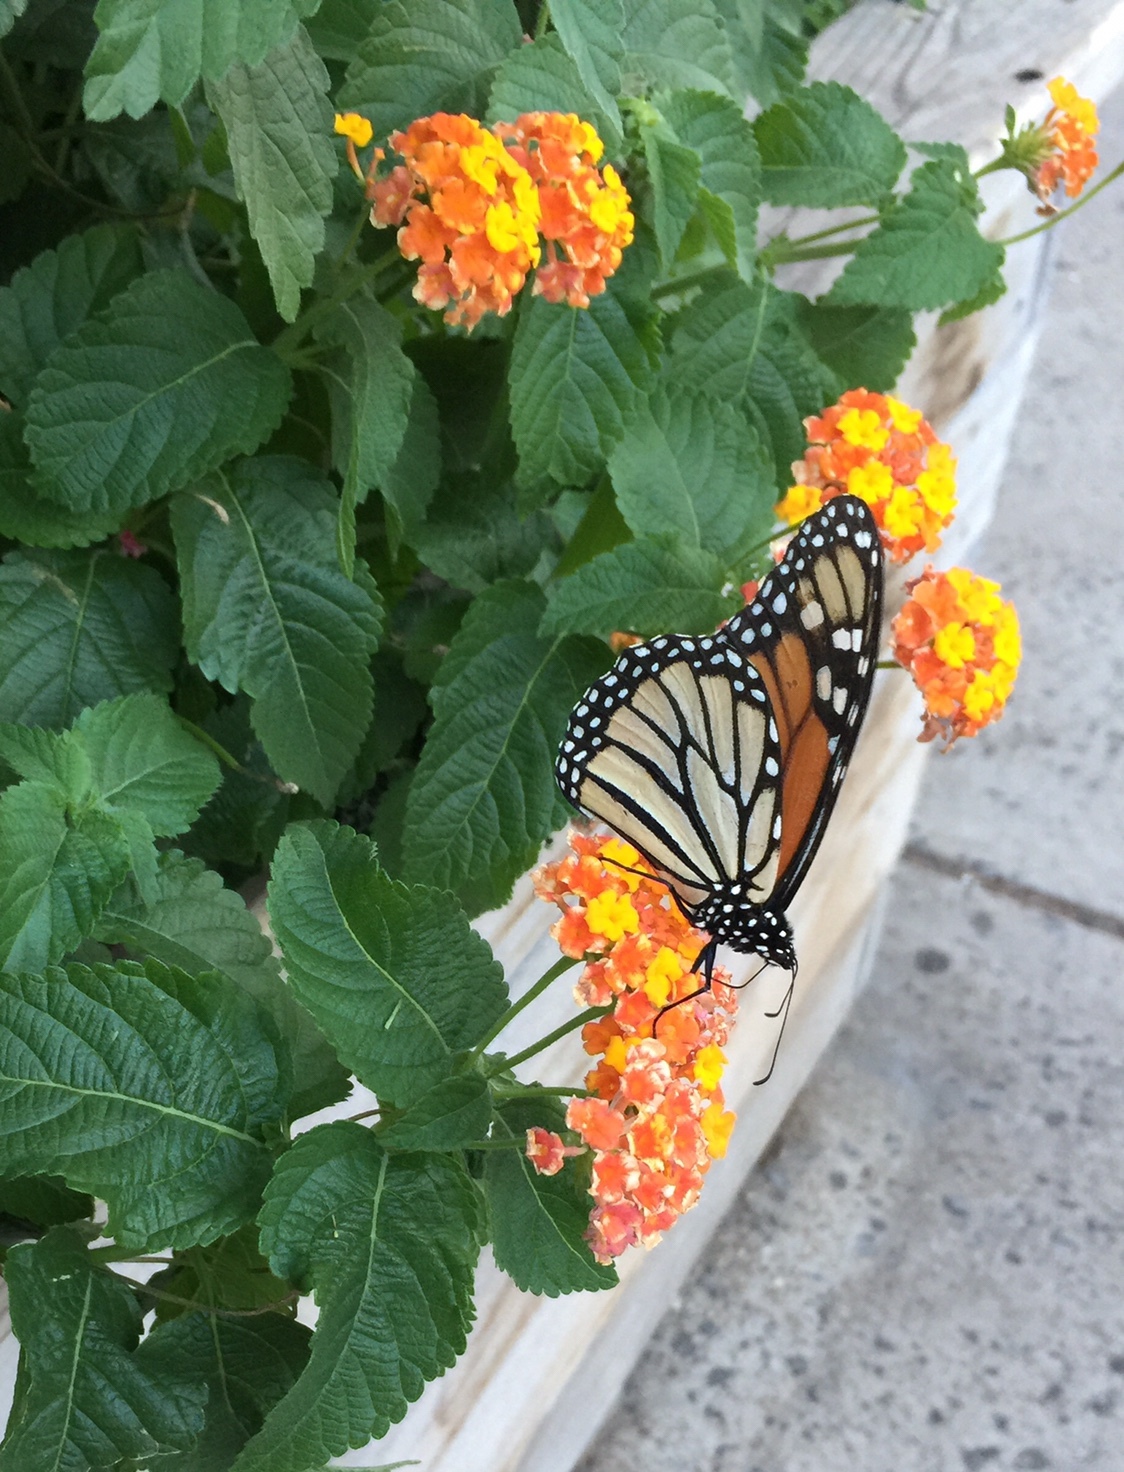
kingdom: Animalia
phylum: Arthropoda
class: Insecta
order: Lepidoptera
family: Nymphalidae
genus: Danaus
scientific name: Danaus plexippus
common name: Monarch
